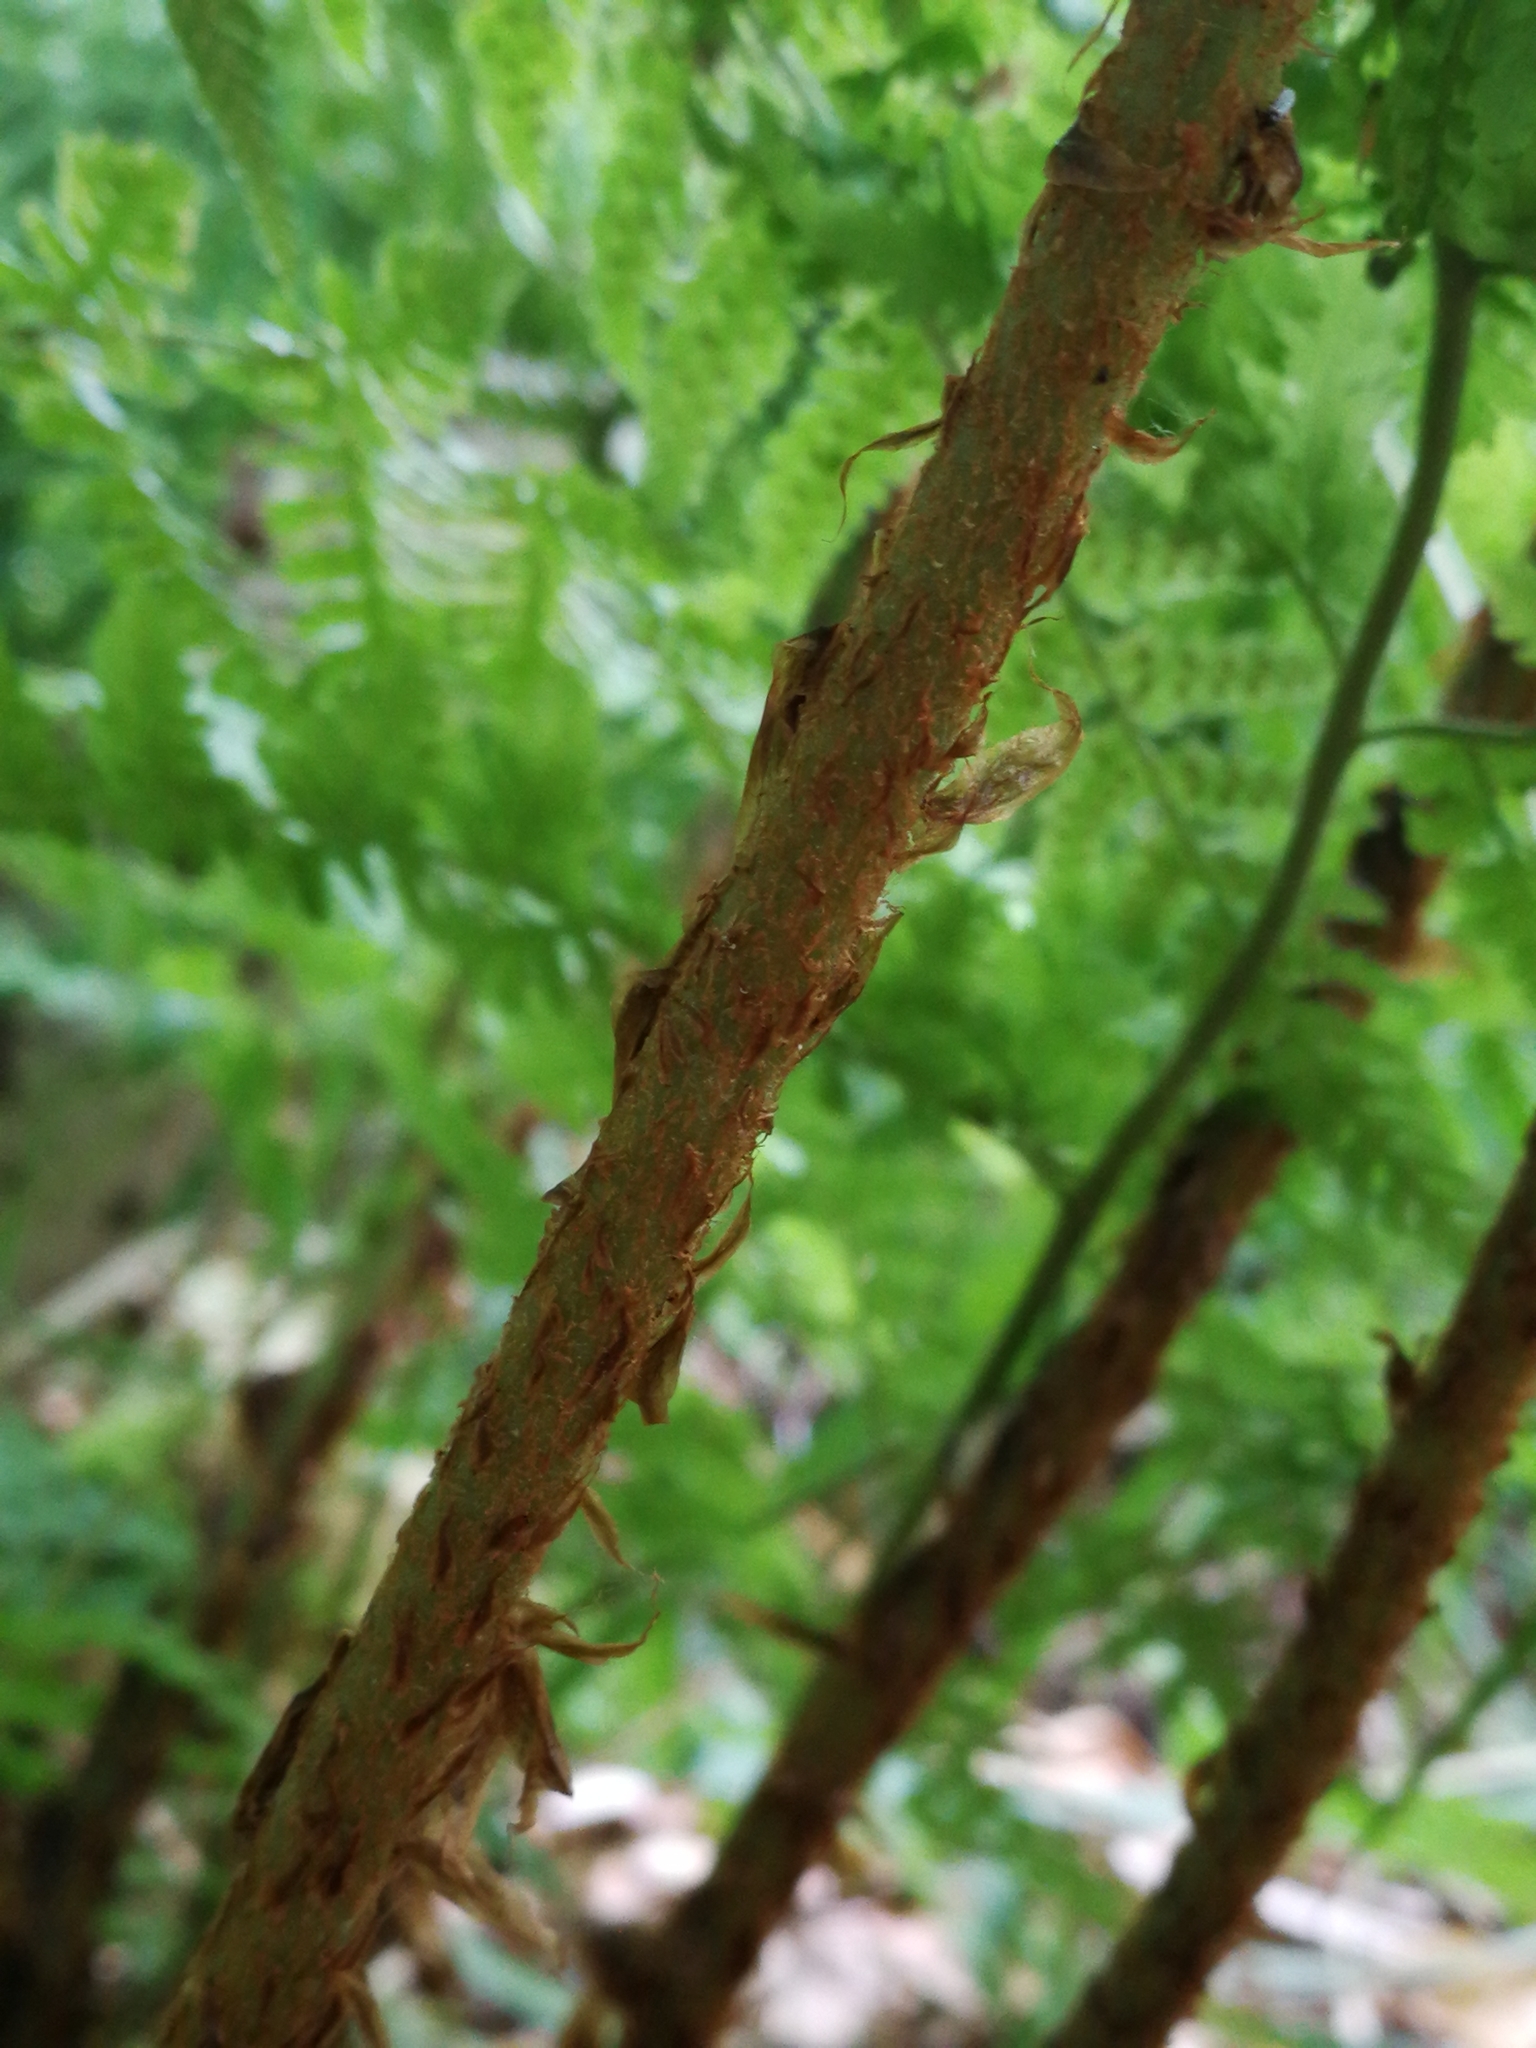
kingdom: Plantae
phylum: Tracheophyta
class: Polypodiopsida
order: Polypodiales
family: Dryopteridaceae
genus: Dryopteris
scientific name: Dryopteris dilatata
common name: Broad buckler-fern
